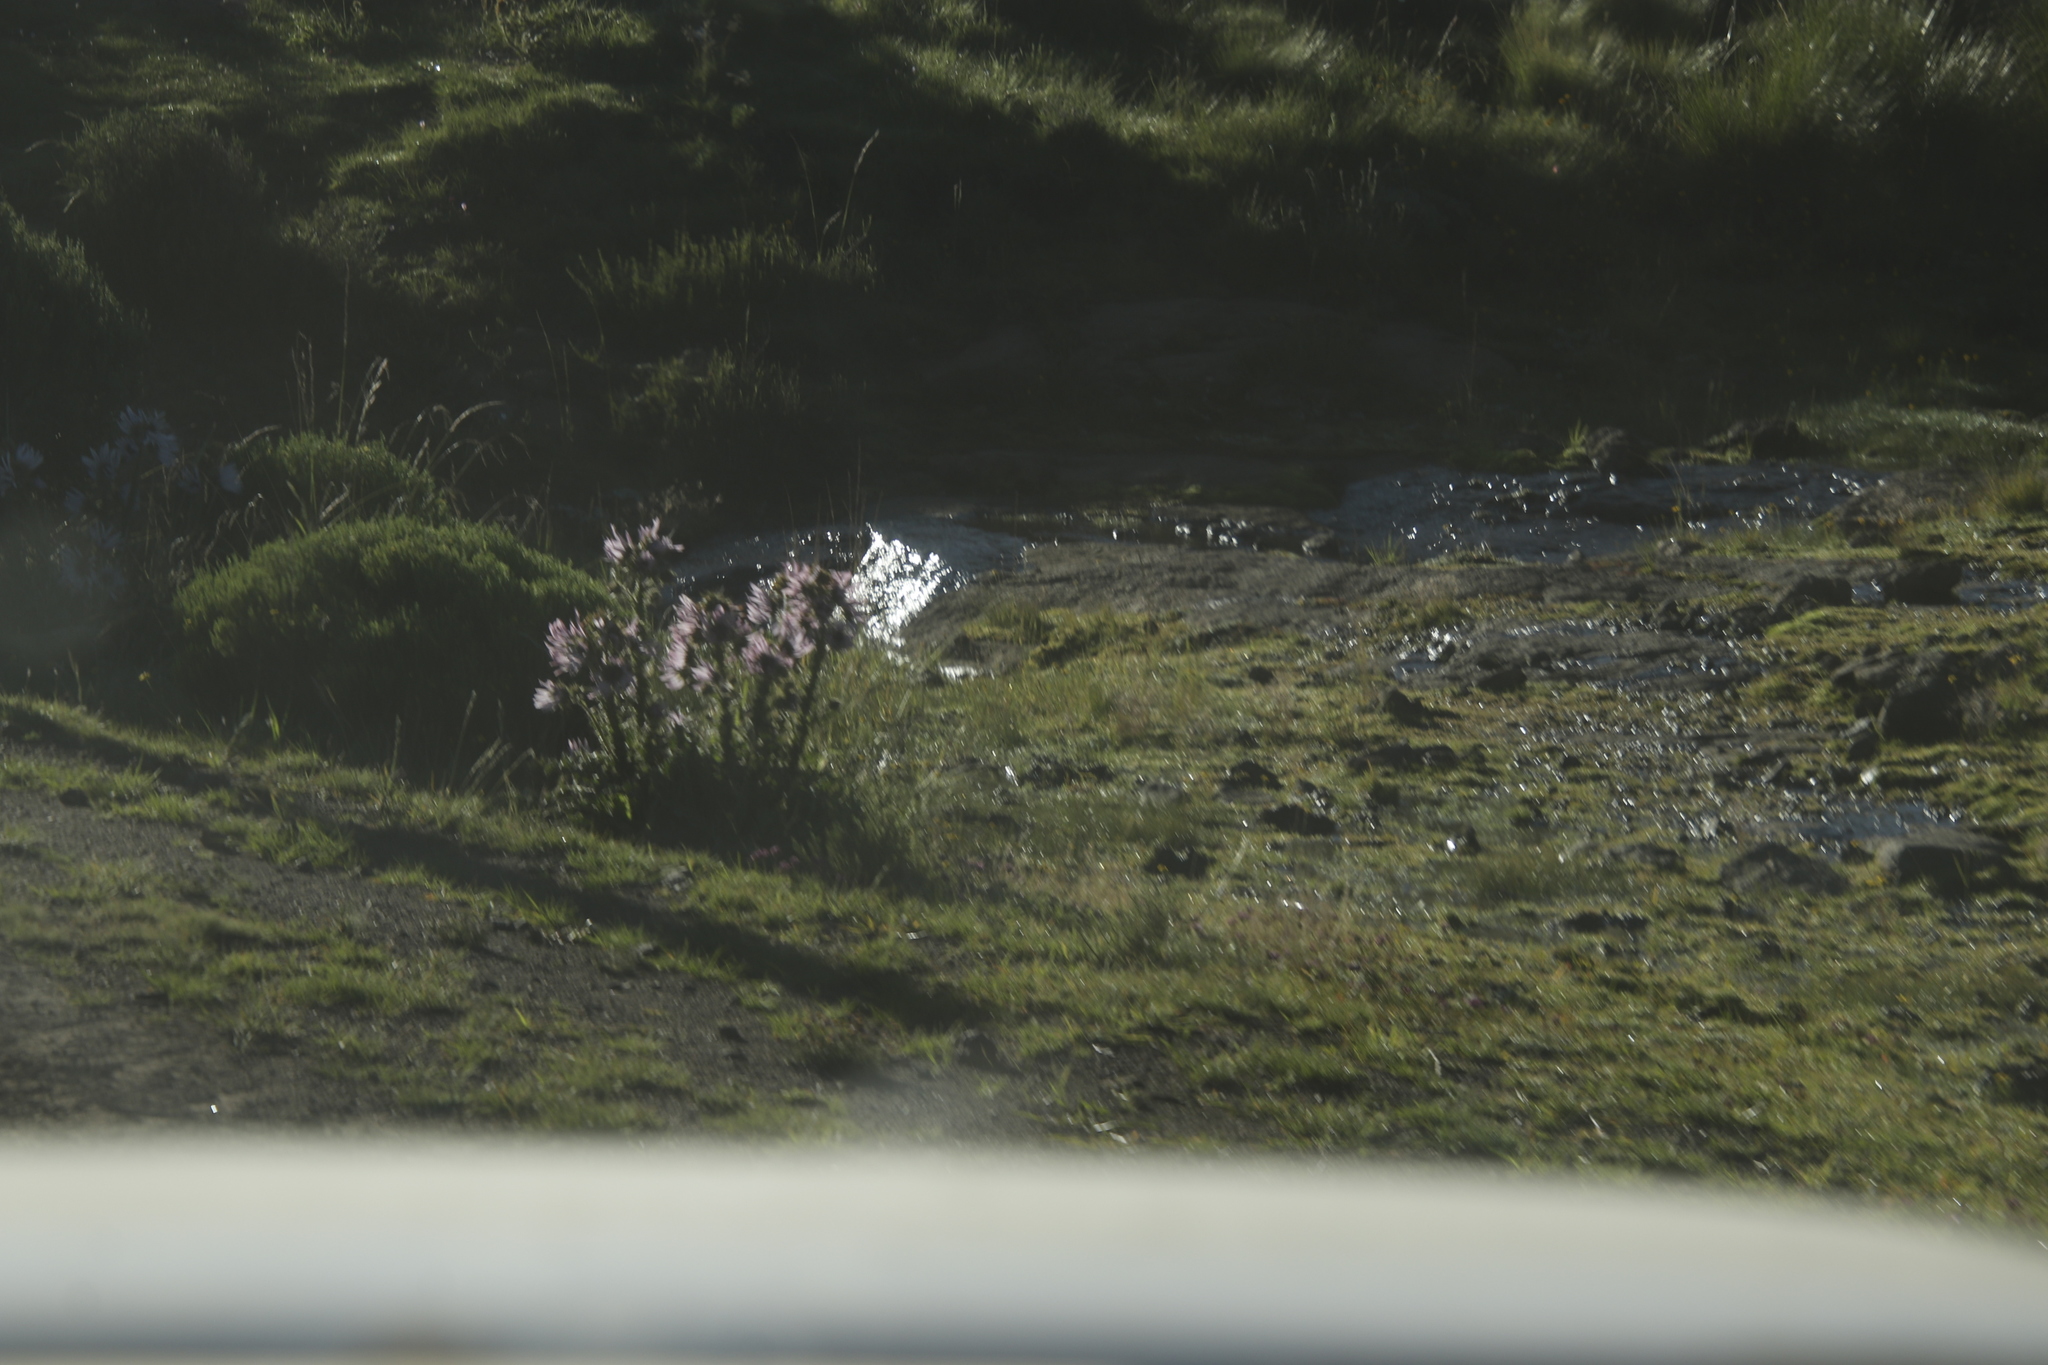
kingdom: Plantae
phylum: Tracheophyta
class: Magnoliopsida
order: Asterales
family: Asteraceae
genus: Berkheya
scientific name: Berkheya purpurea
